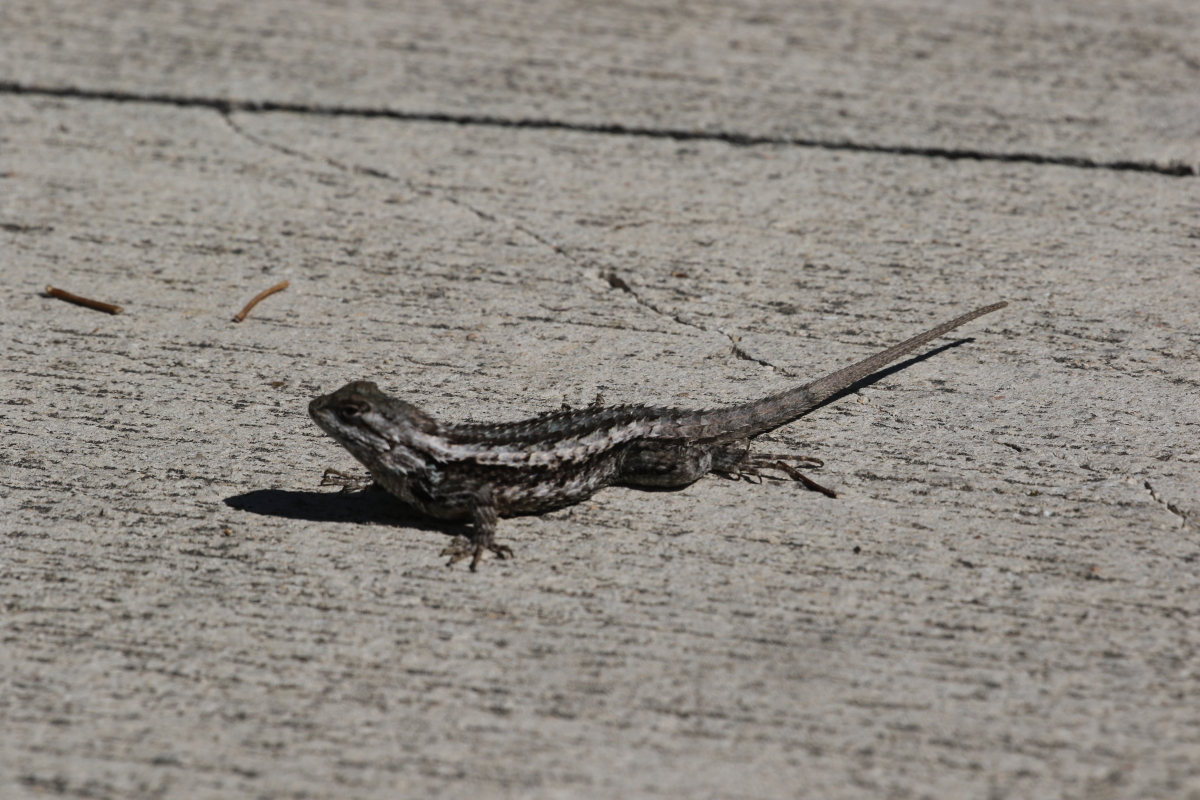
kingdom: Animalia
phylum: Chordata
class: Squamata
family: Phrynosomatidae
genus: Sceloporus
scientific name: Sceloporus olivaceus
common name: Texas spiny lizard
